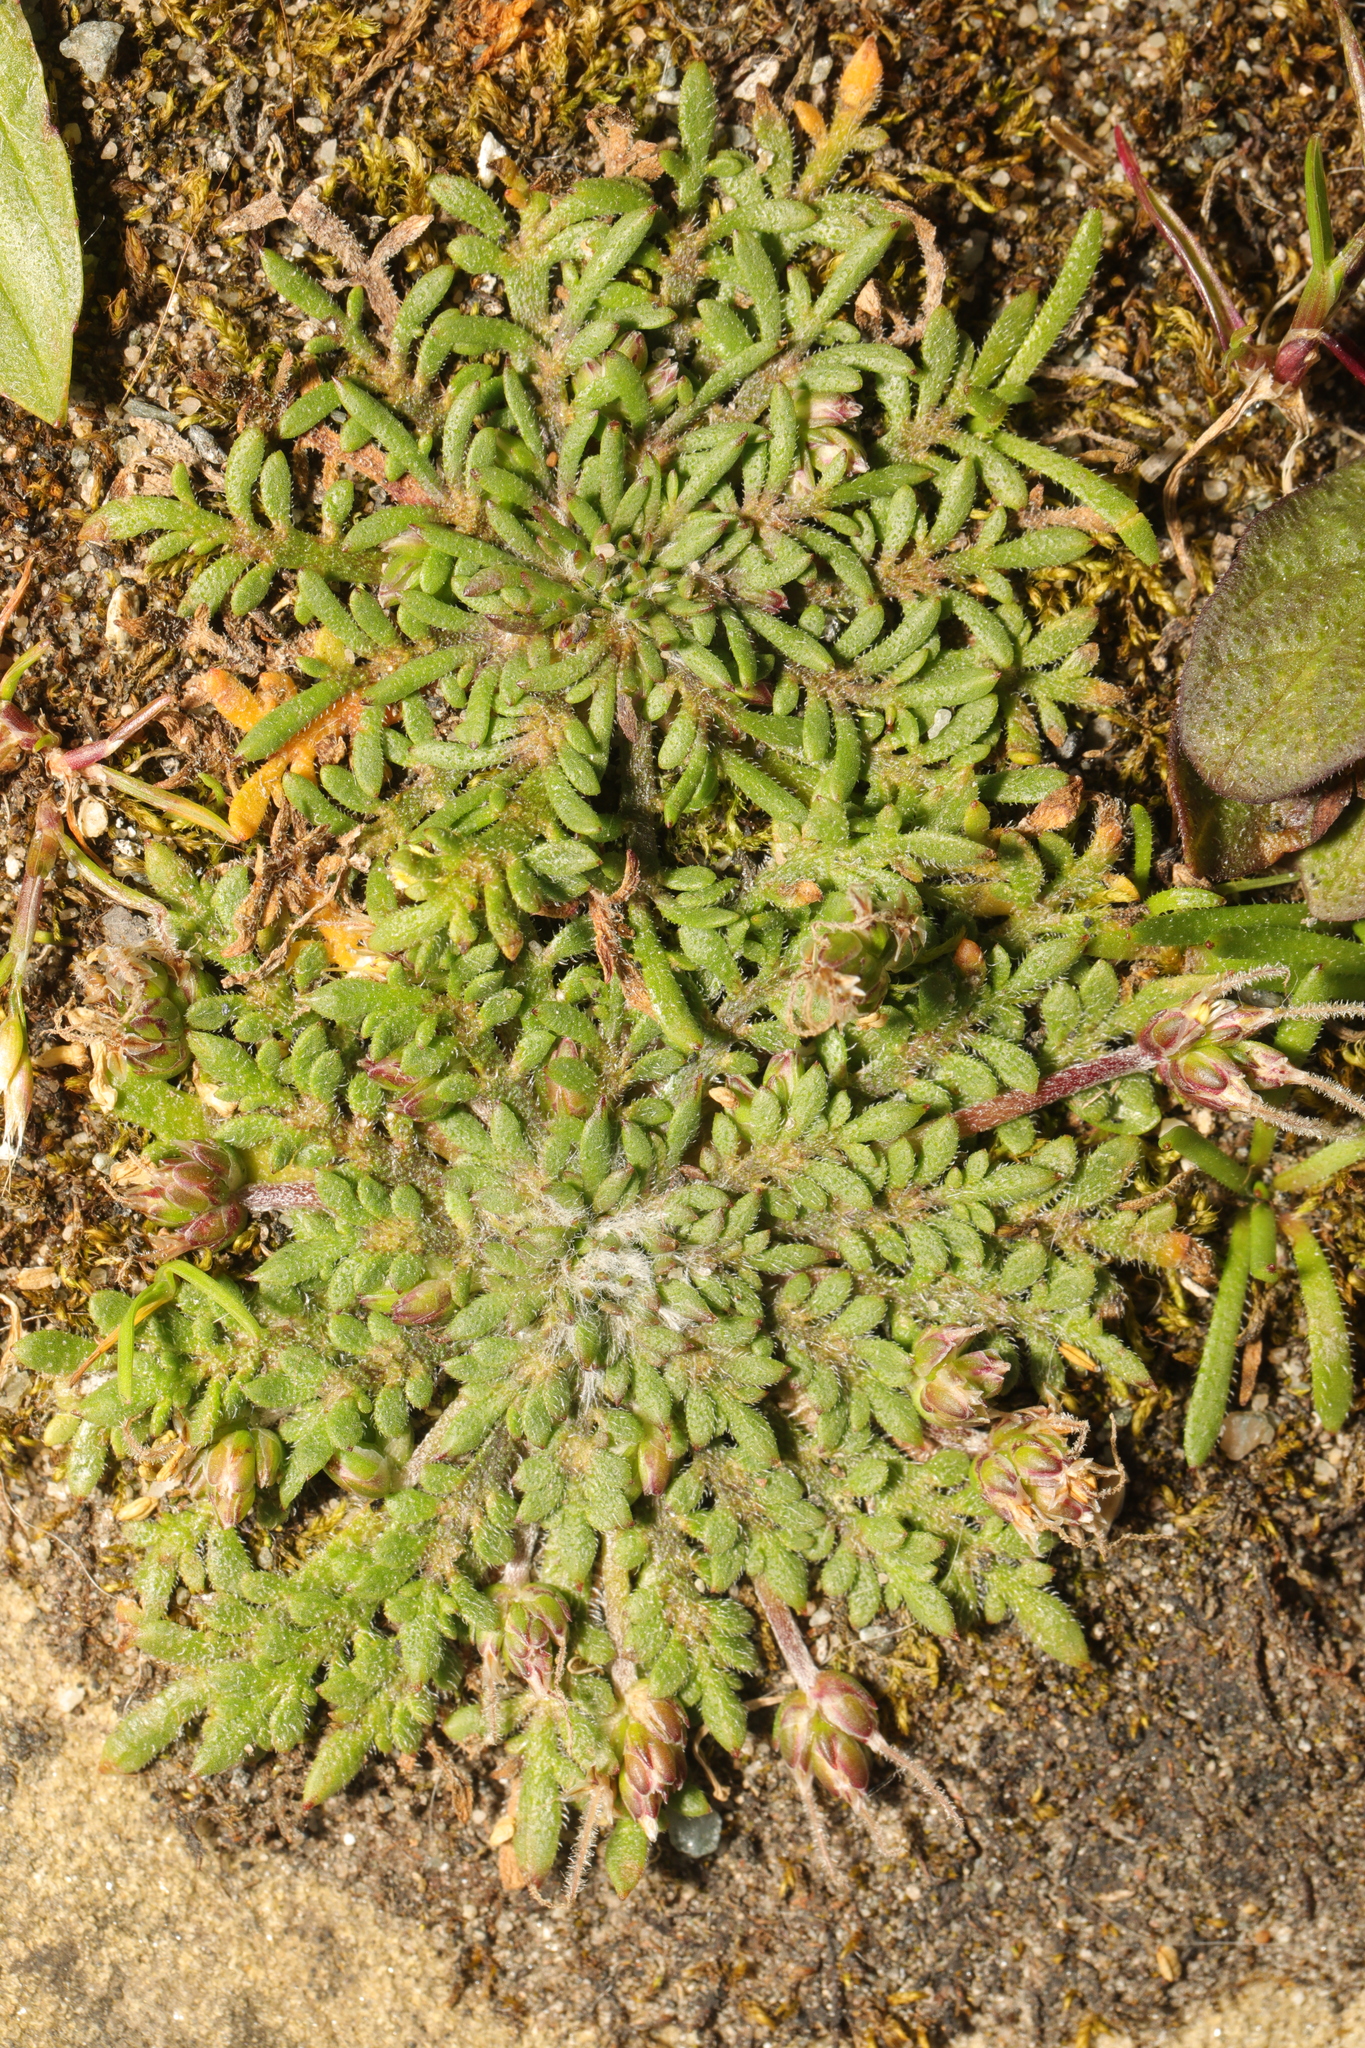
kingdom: Plantae
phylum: Tracheophyta
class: Magnoliopsida
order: Lamiales
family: Plantaginaceae
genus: Plantago
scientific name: Plantago coronopus
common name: Buck's-horn plantain
